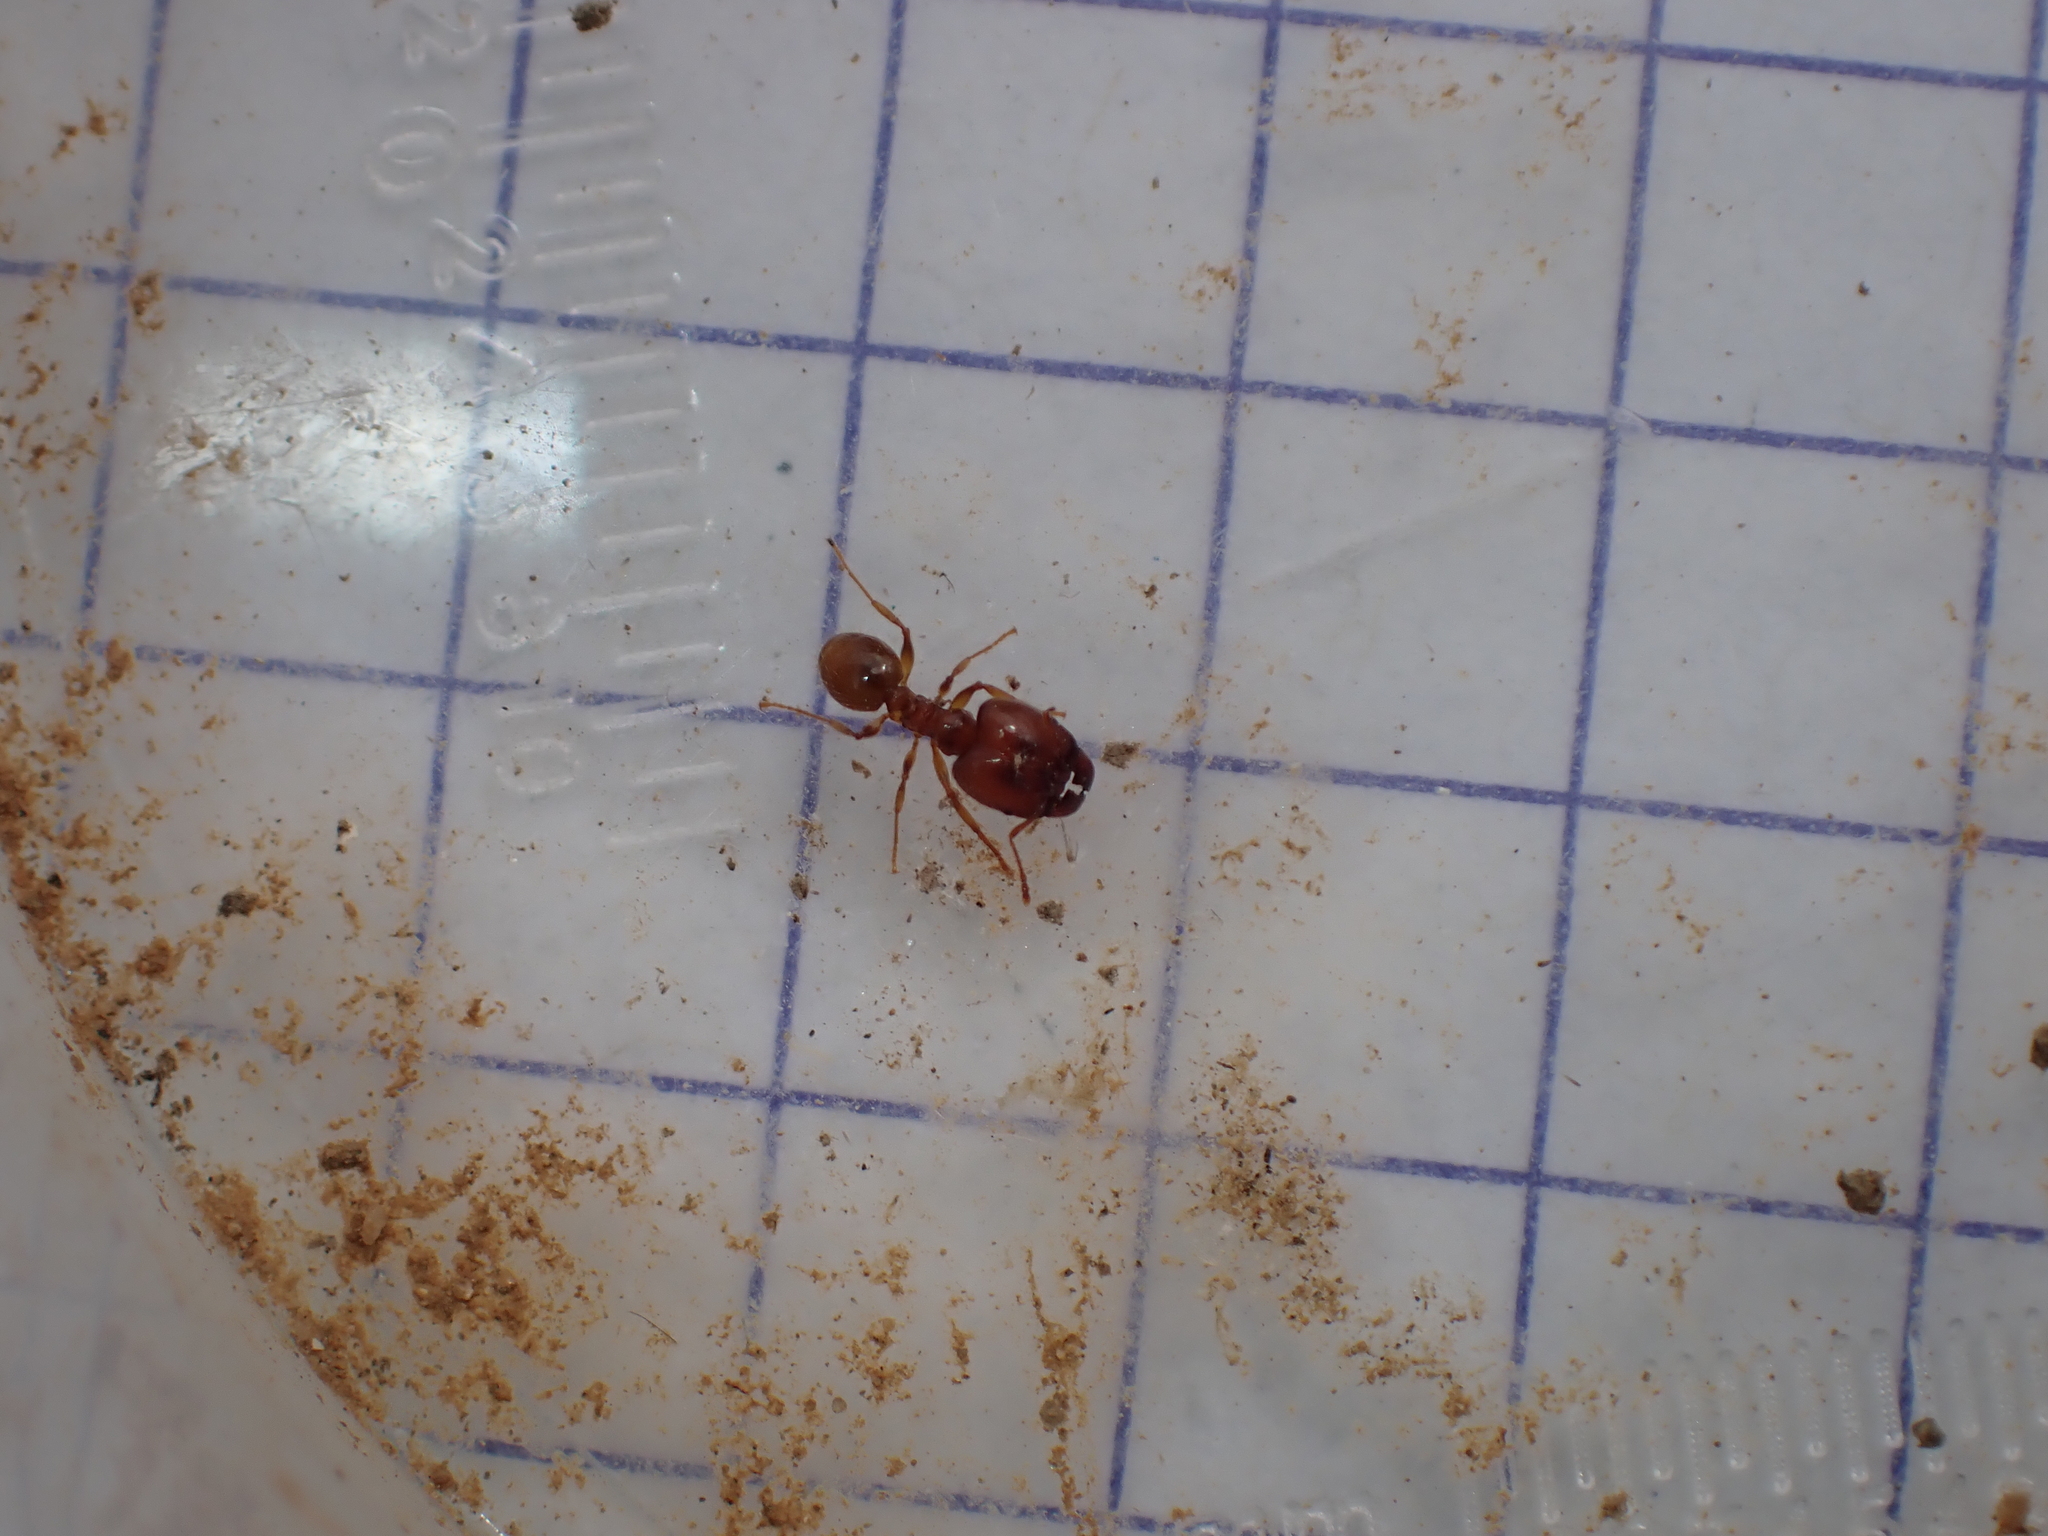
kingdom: Animalia
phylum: Arthropoda
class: Insecta
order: Hymenoptera
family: Formicidae
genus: Pheidole
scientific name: Pheidole pallidula
